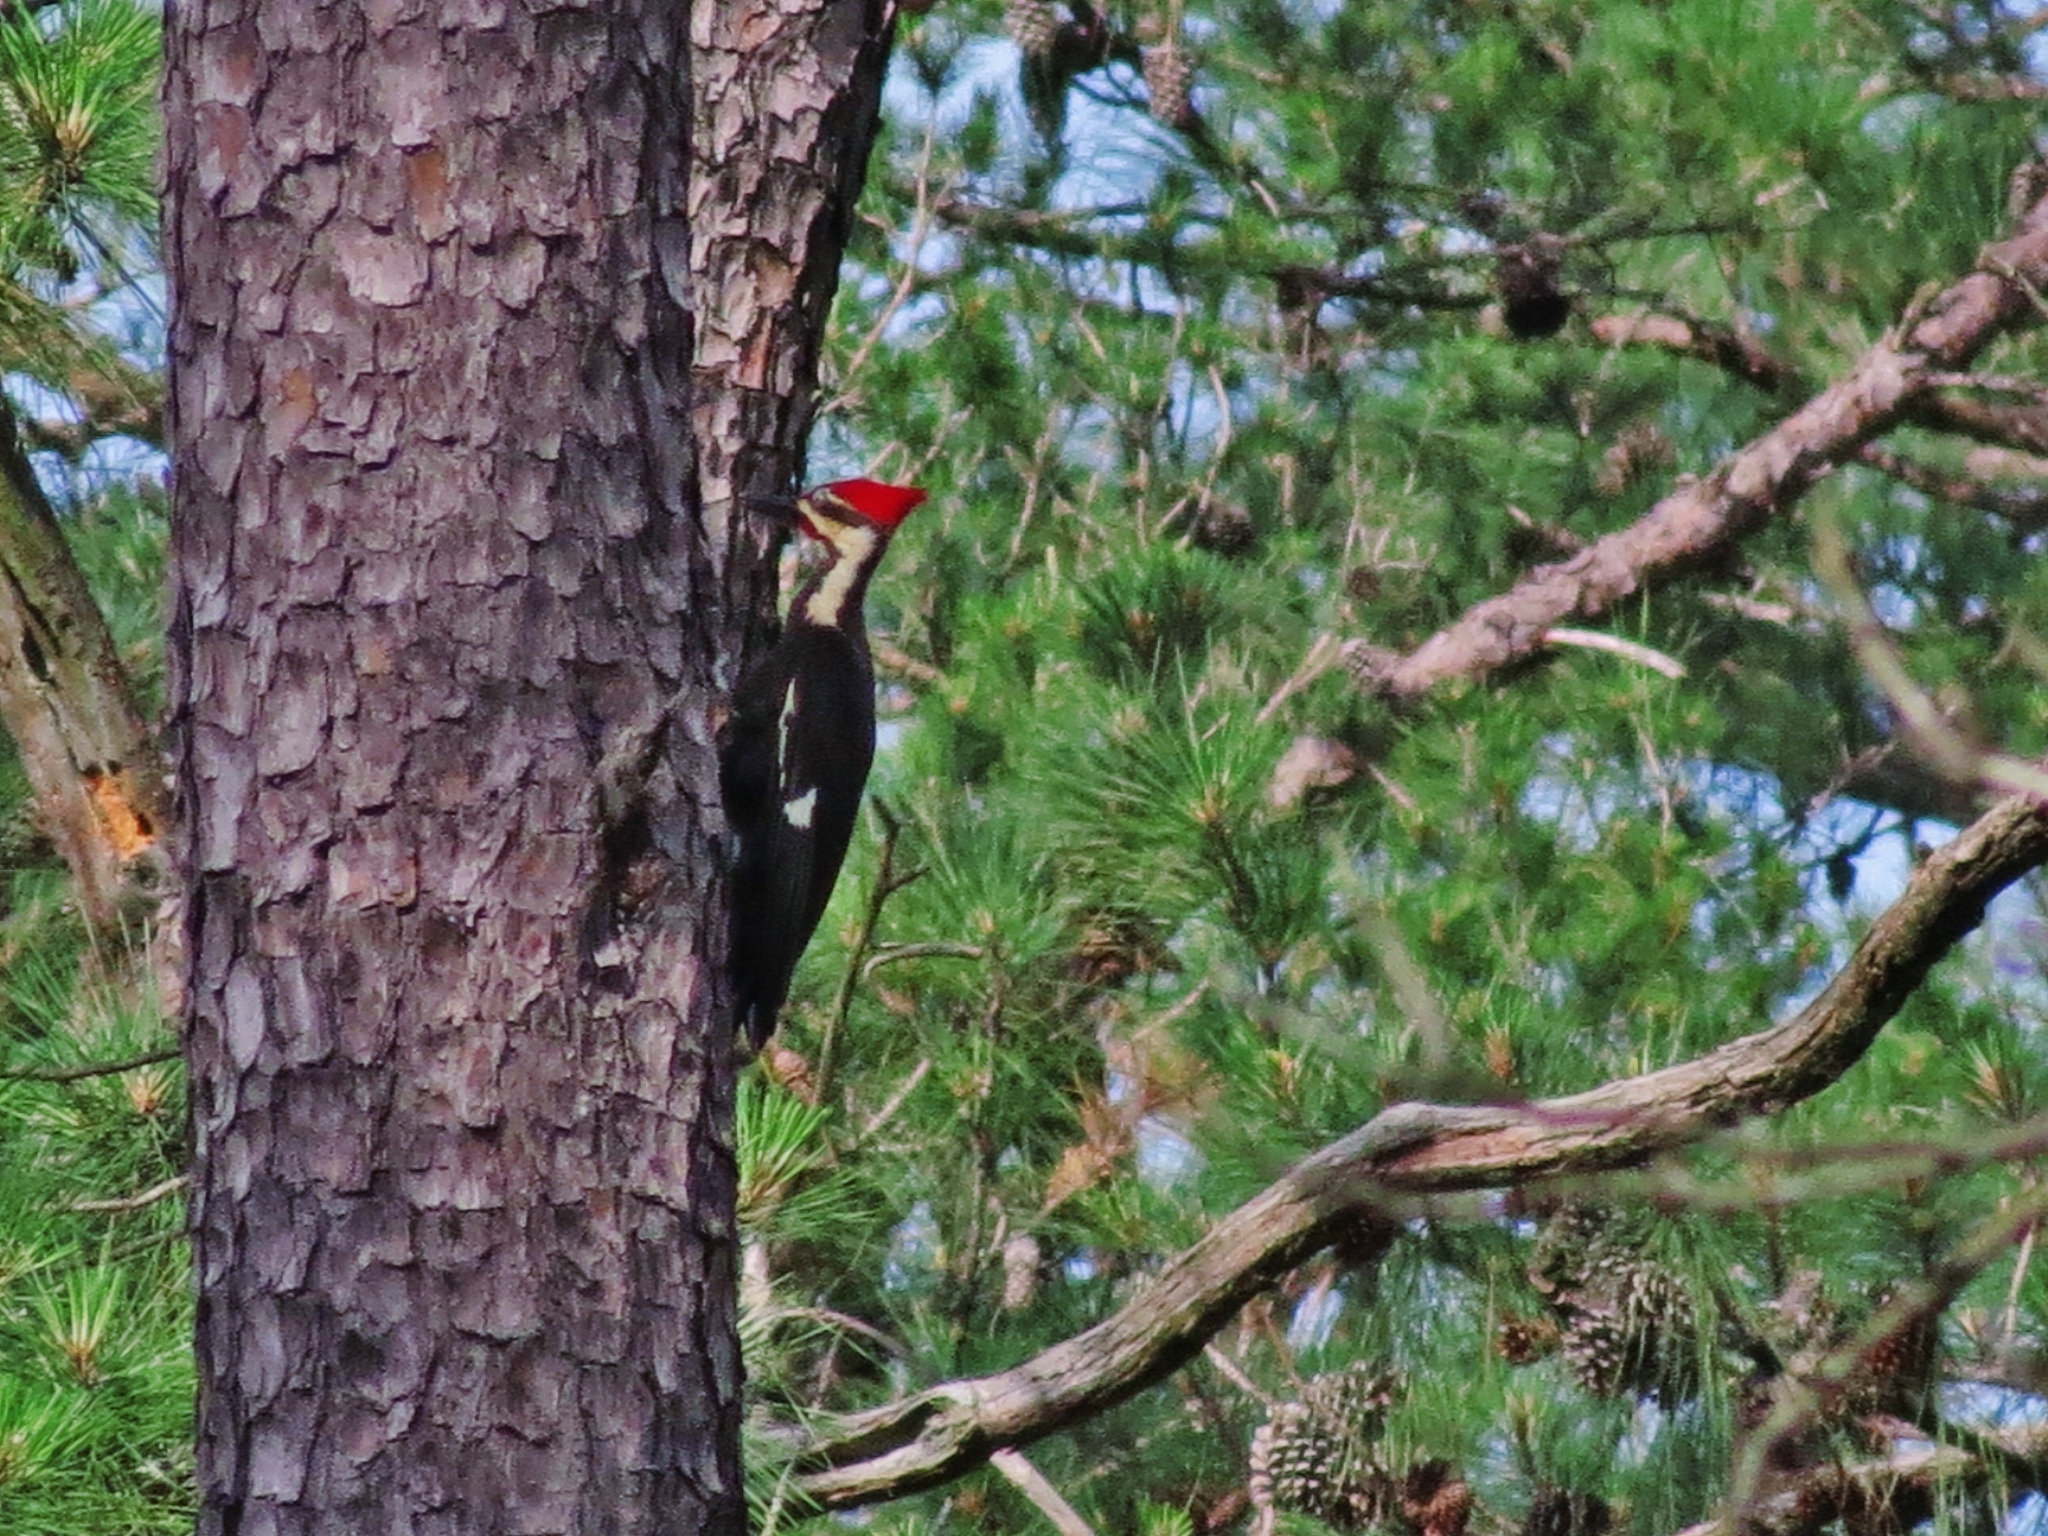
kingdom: Animalia
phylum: Chordata
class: Aves
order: Piciformes
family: Picidae
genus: Dryocopus
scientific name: Dryocopus pileatus
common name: Pileated woodpecker
